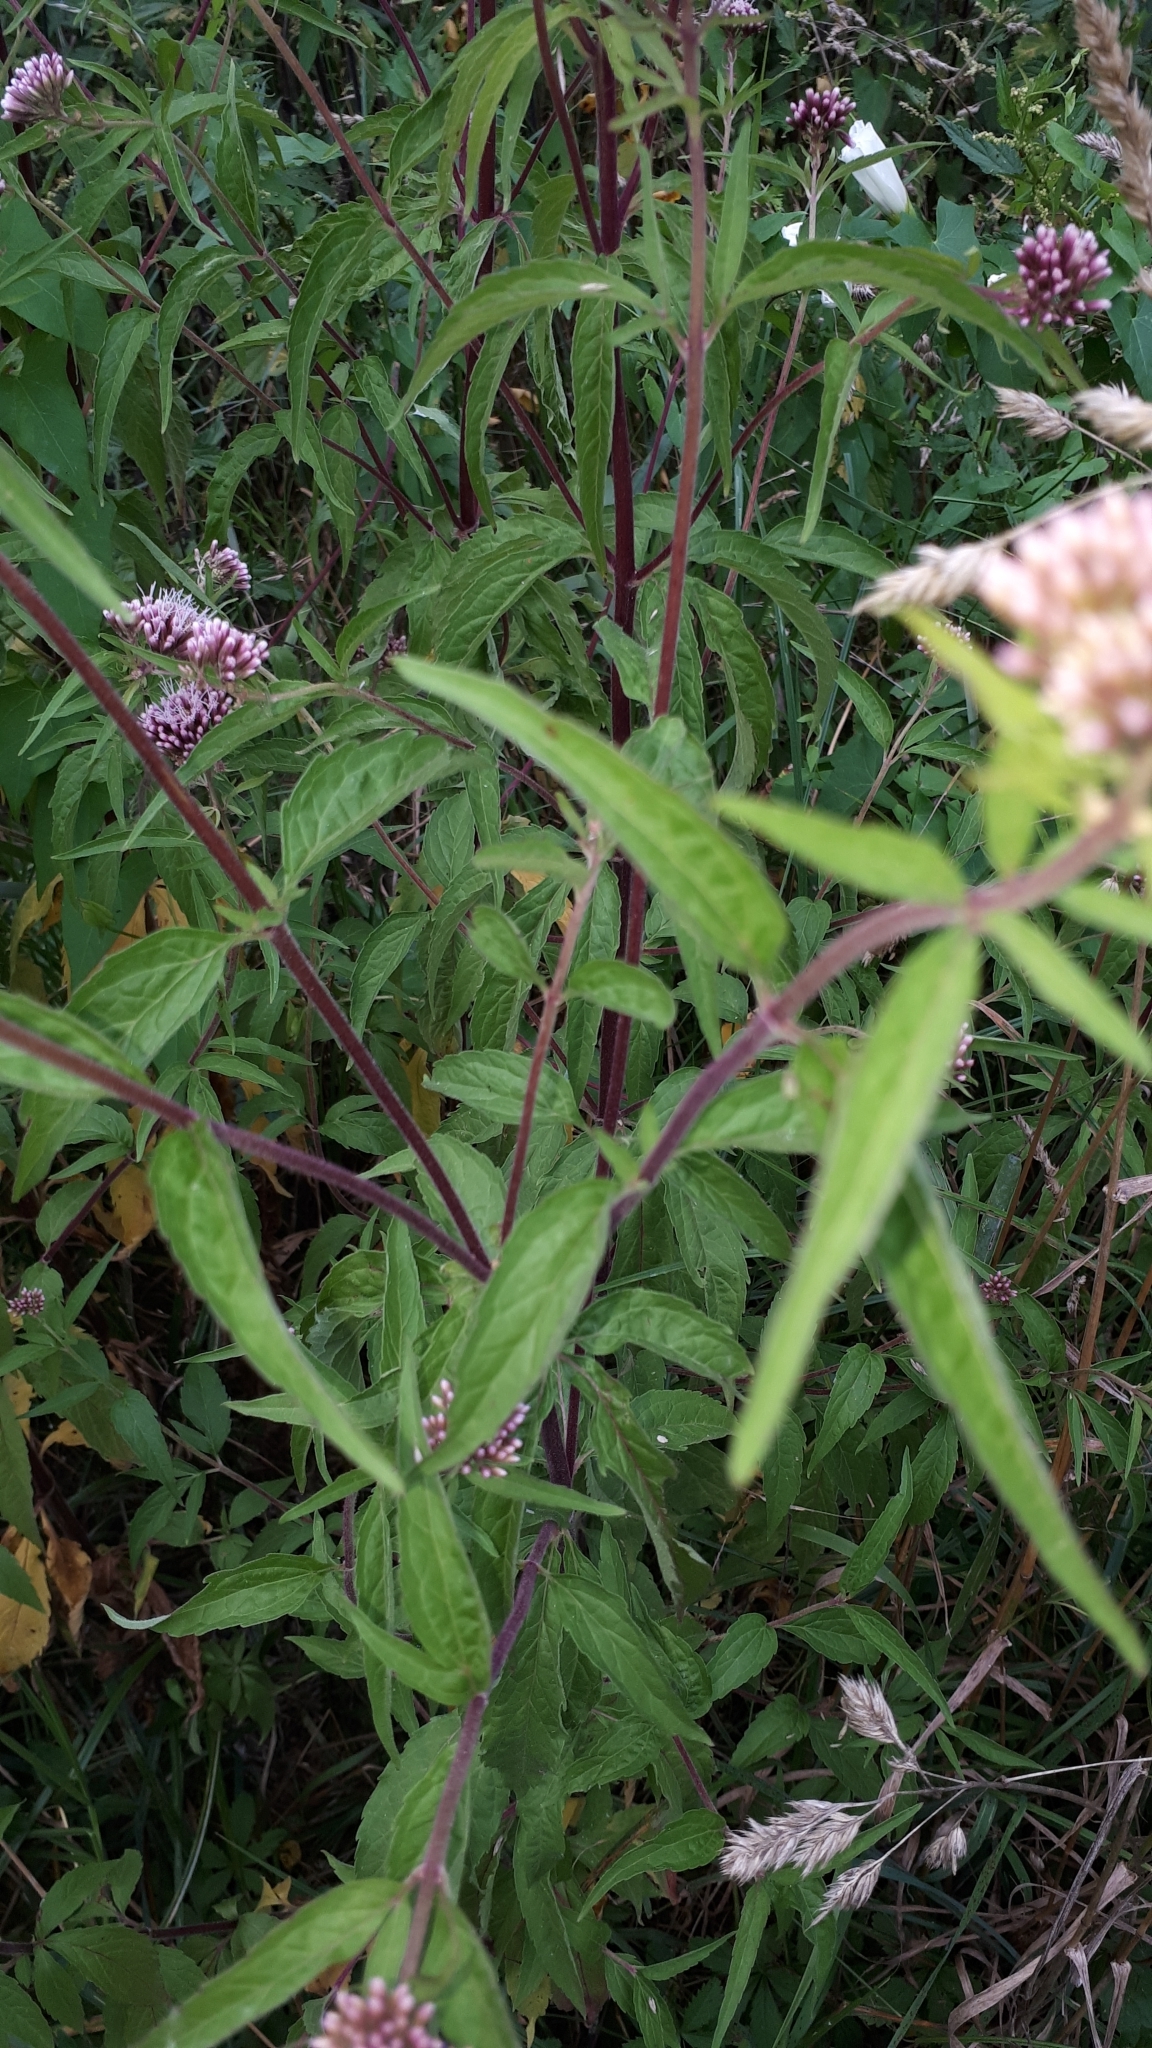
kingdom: Plantae
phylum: Tracheophyta
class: Magnoliopsida
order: Asterales
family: Asteraceae
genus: Eupatorium
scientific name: Eupatorium cannabinum
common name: Hemp-agrimony
